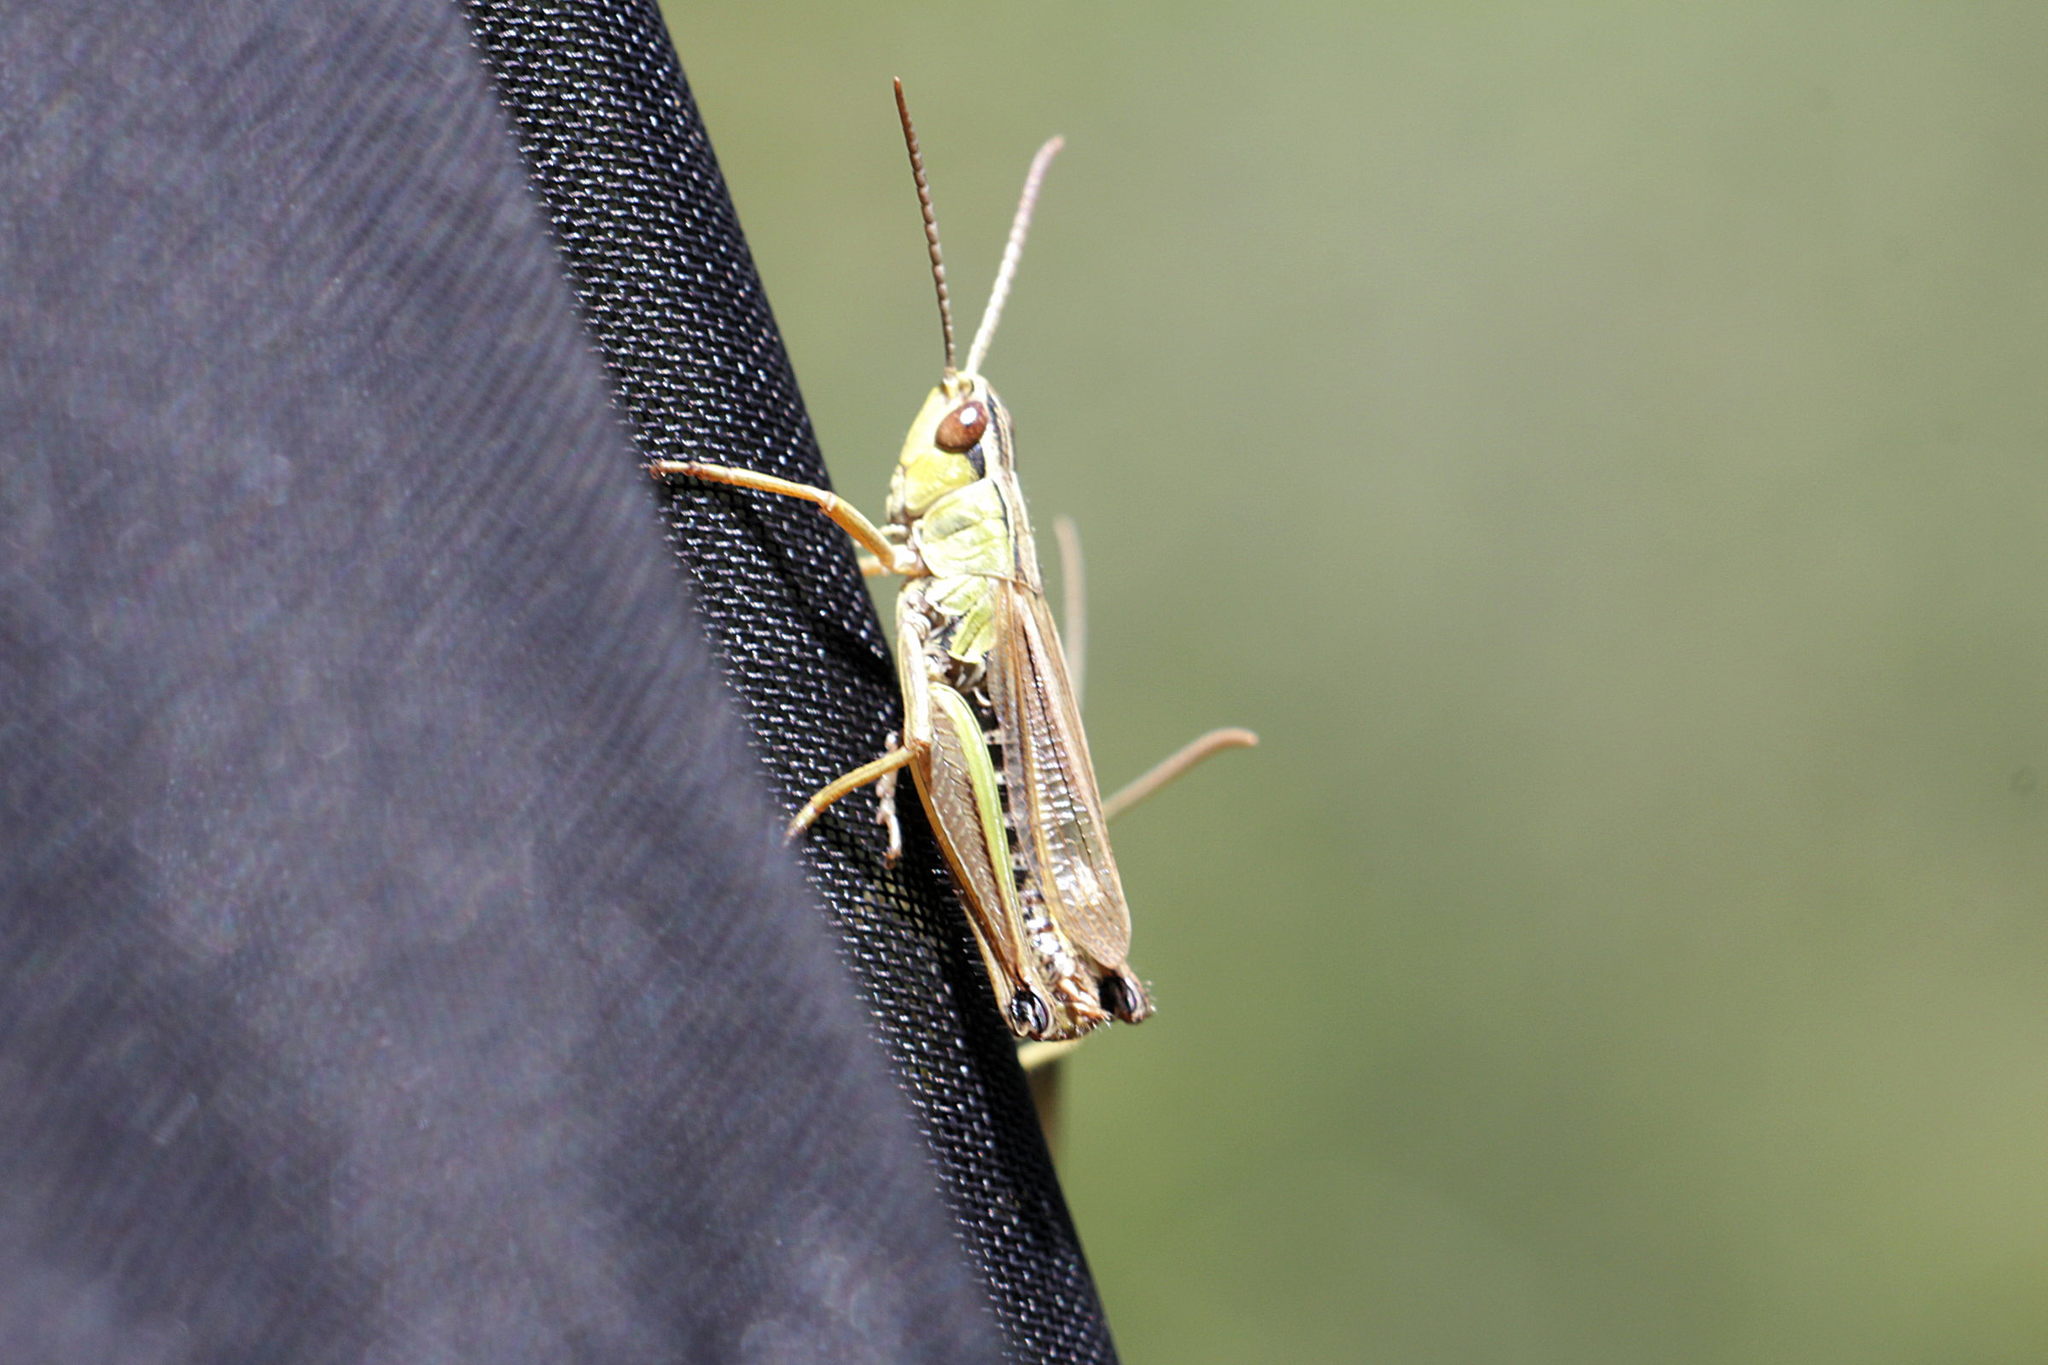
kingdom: Animalia
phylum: Arthropoda
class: Insecta
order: Orthoptera
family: Acrididae
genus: Pseudochorthippus
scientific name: Pseudochorthippus parallelus
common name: Meadow grasshopper
